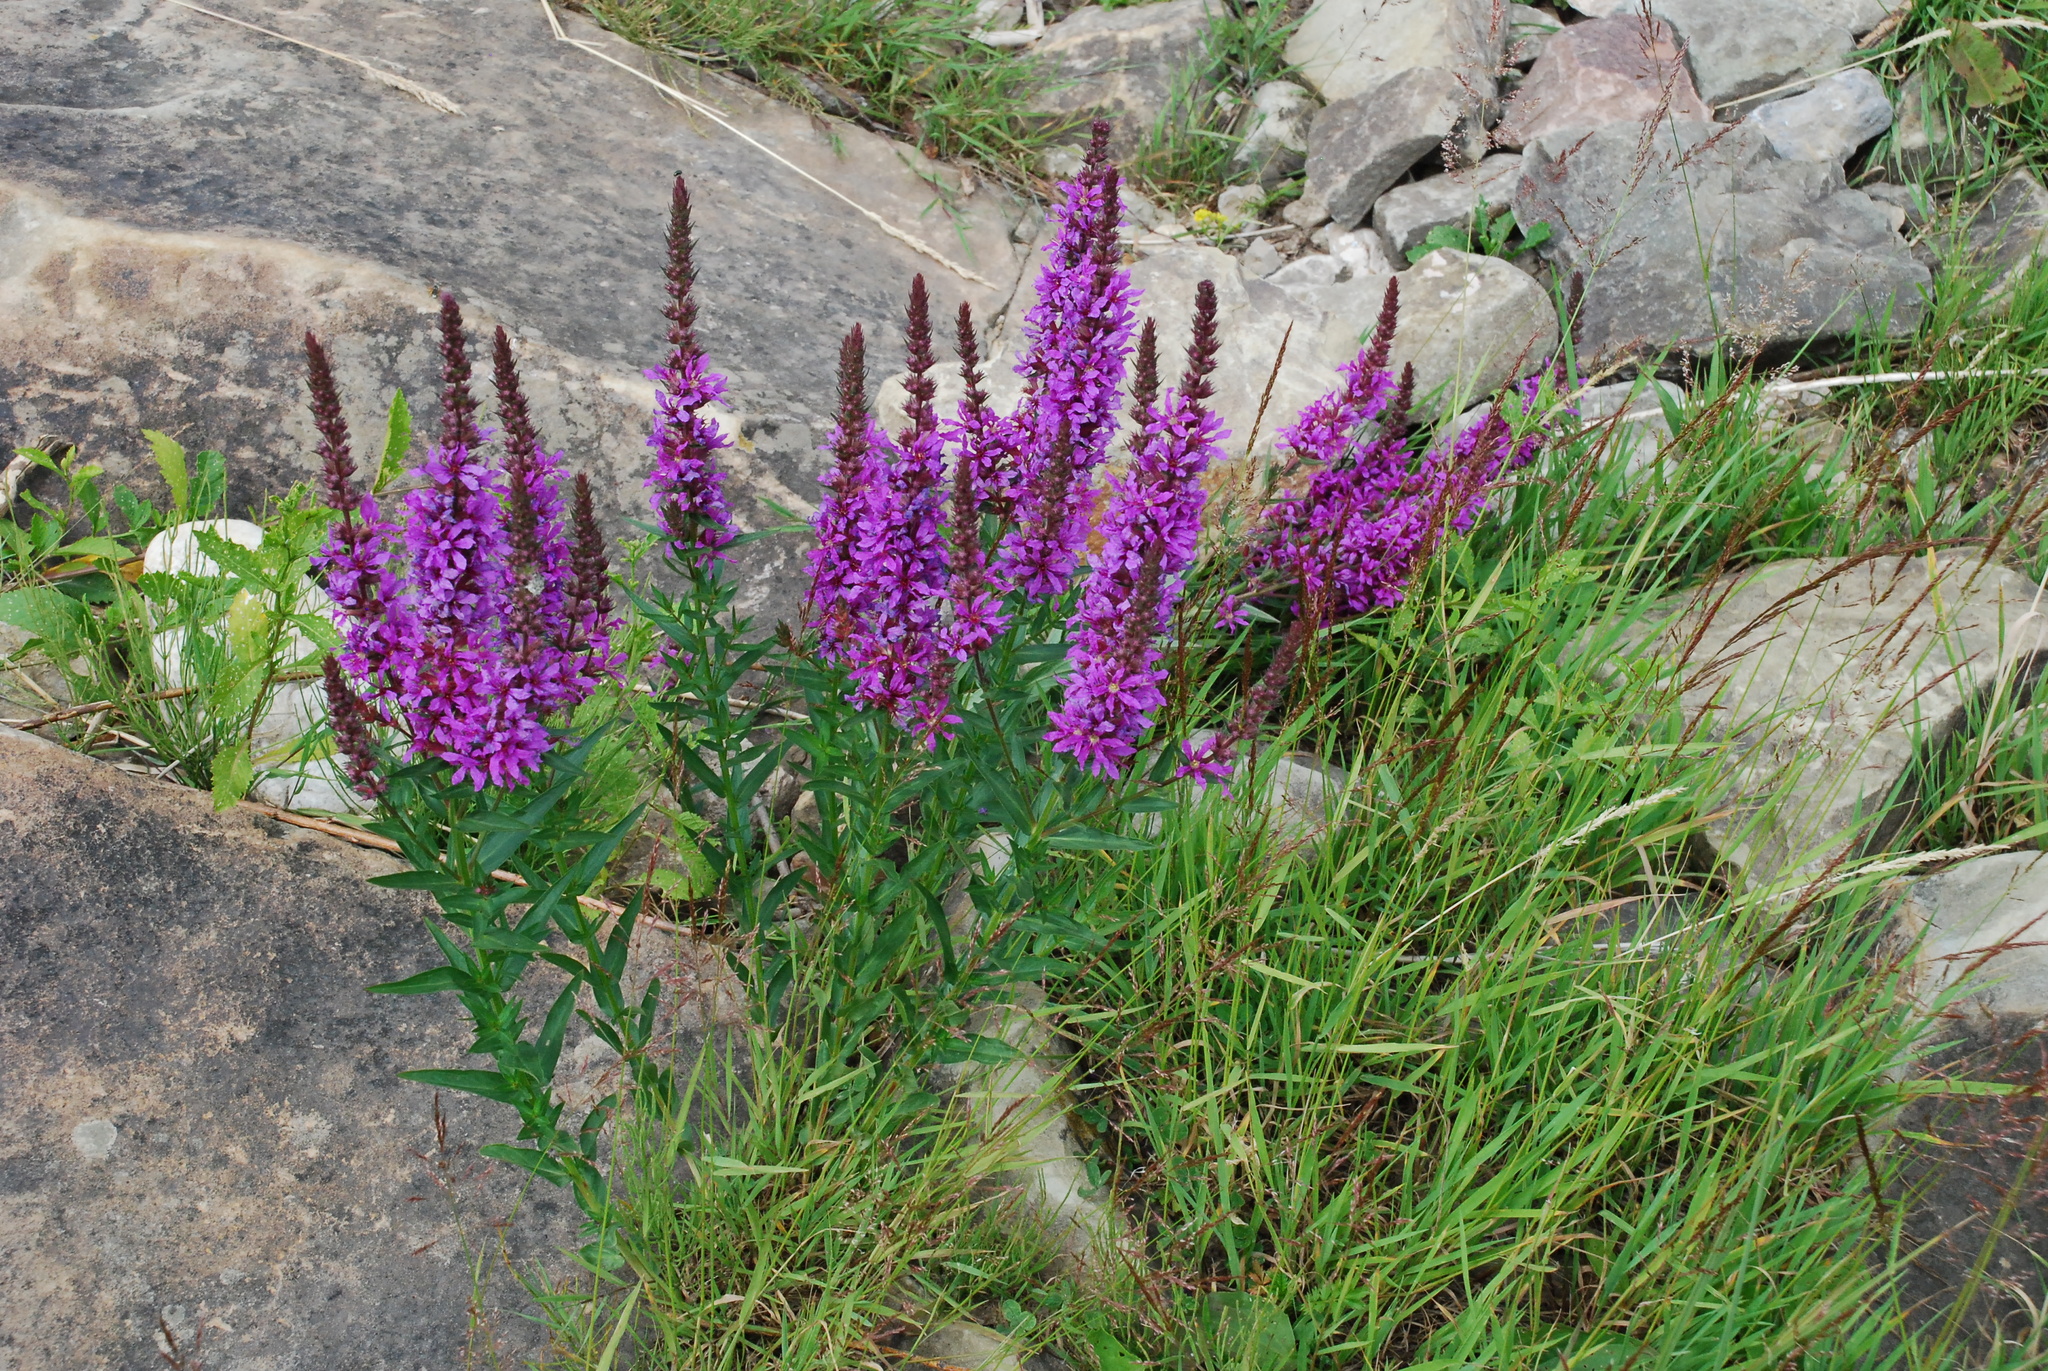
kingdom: Plantae
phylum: Tracheophyta
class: Magnoliopsida
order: Myrtales
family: Lythraceae
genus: Lythrum
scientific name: Lythrum salicaria
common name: Purple loosestrife
